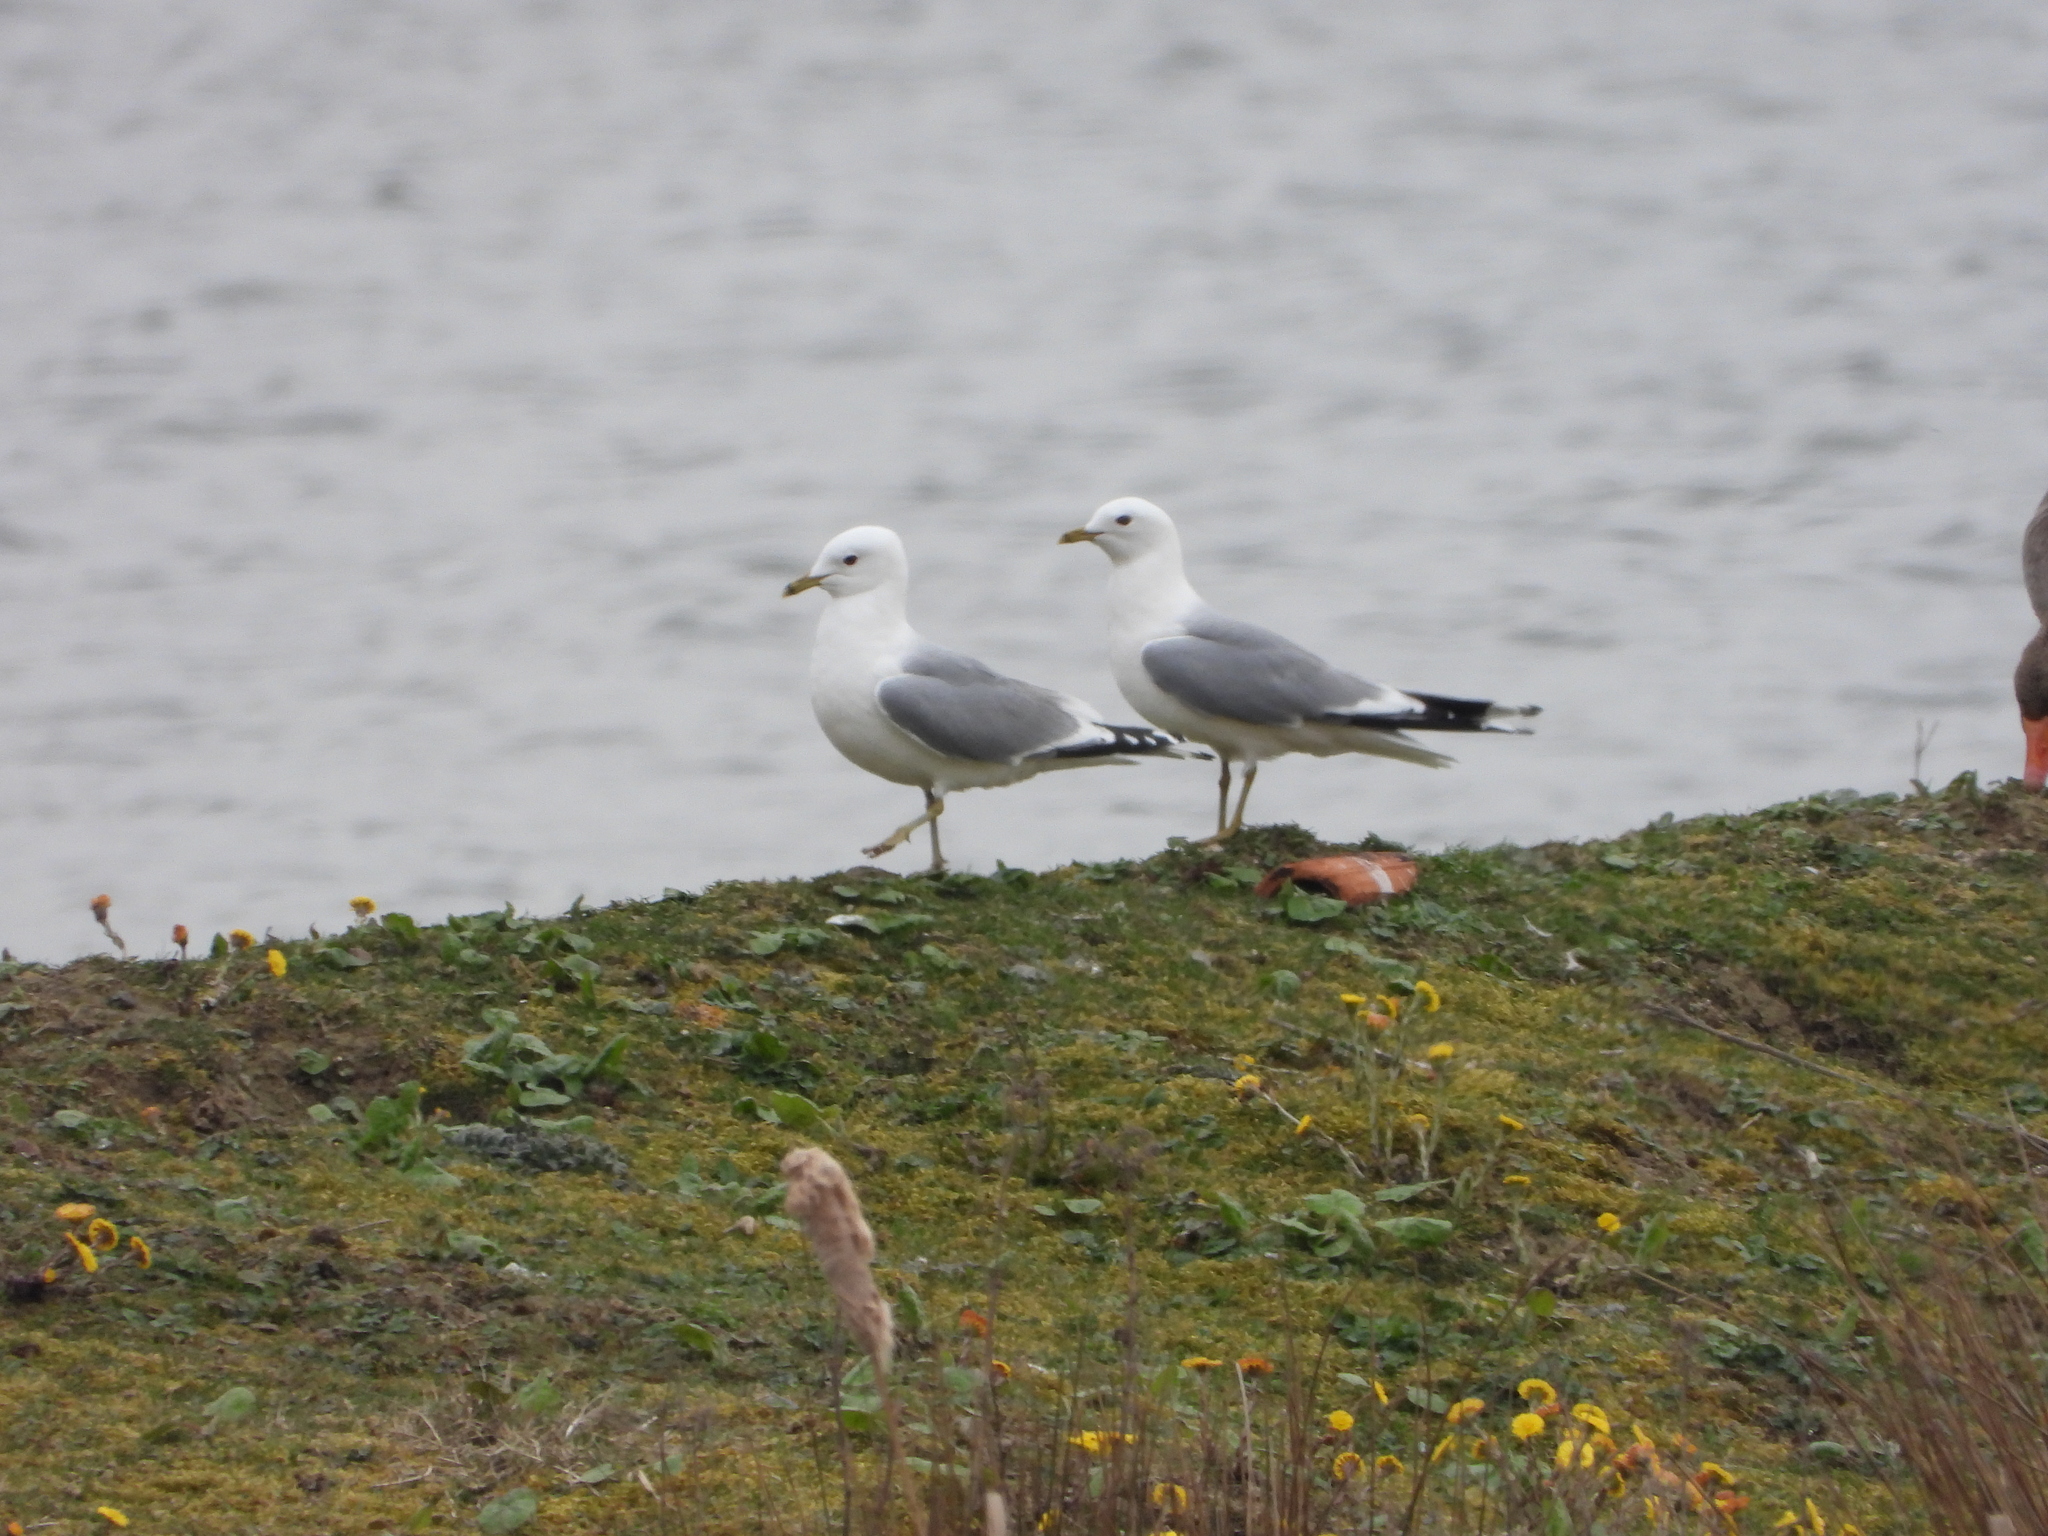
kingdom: Animalia
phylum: Chordata
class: Aves
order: Charadriiformes
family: Laridae
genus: Larus
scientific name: Larus canus
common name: Mew gull
